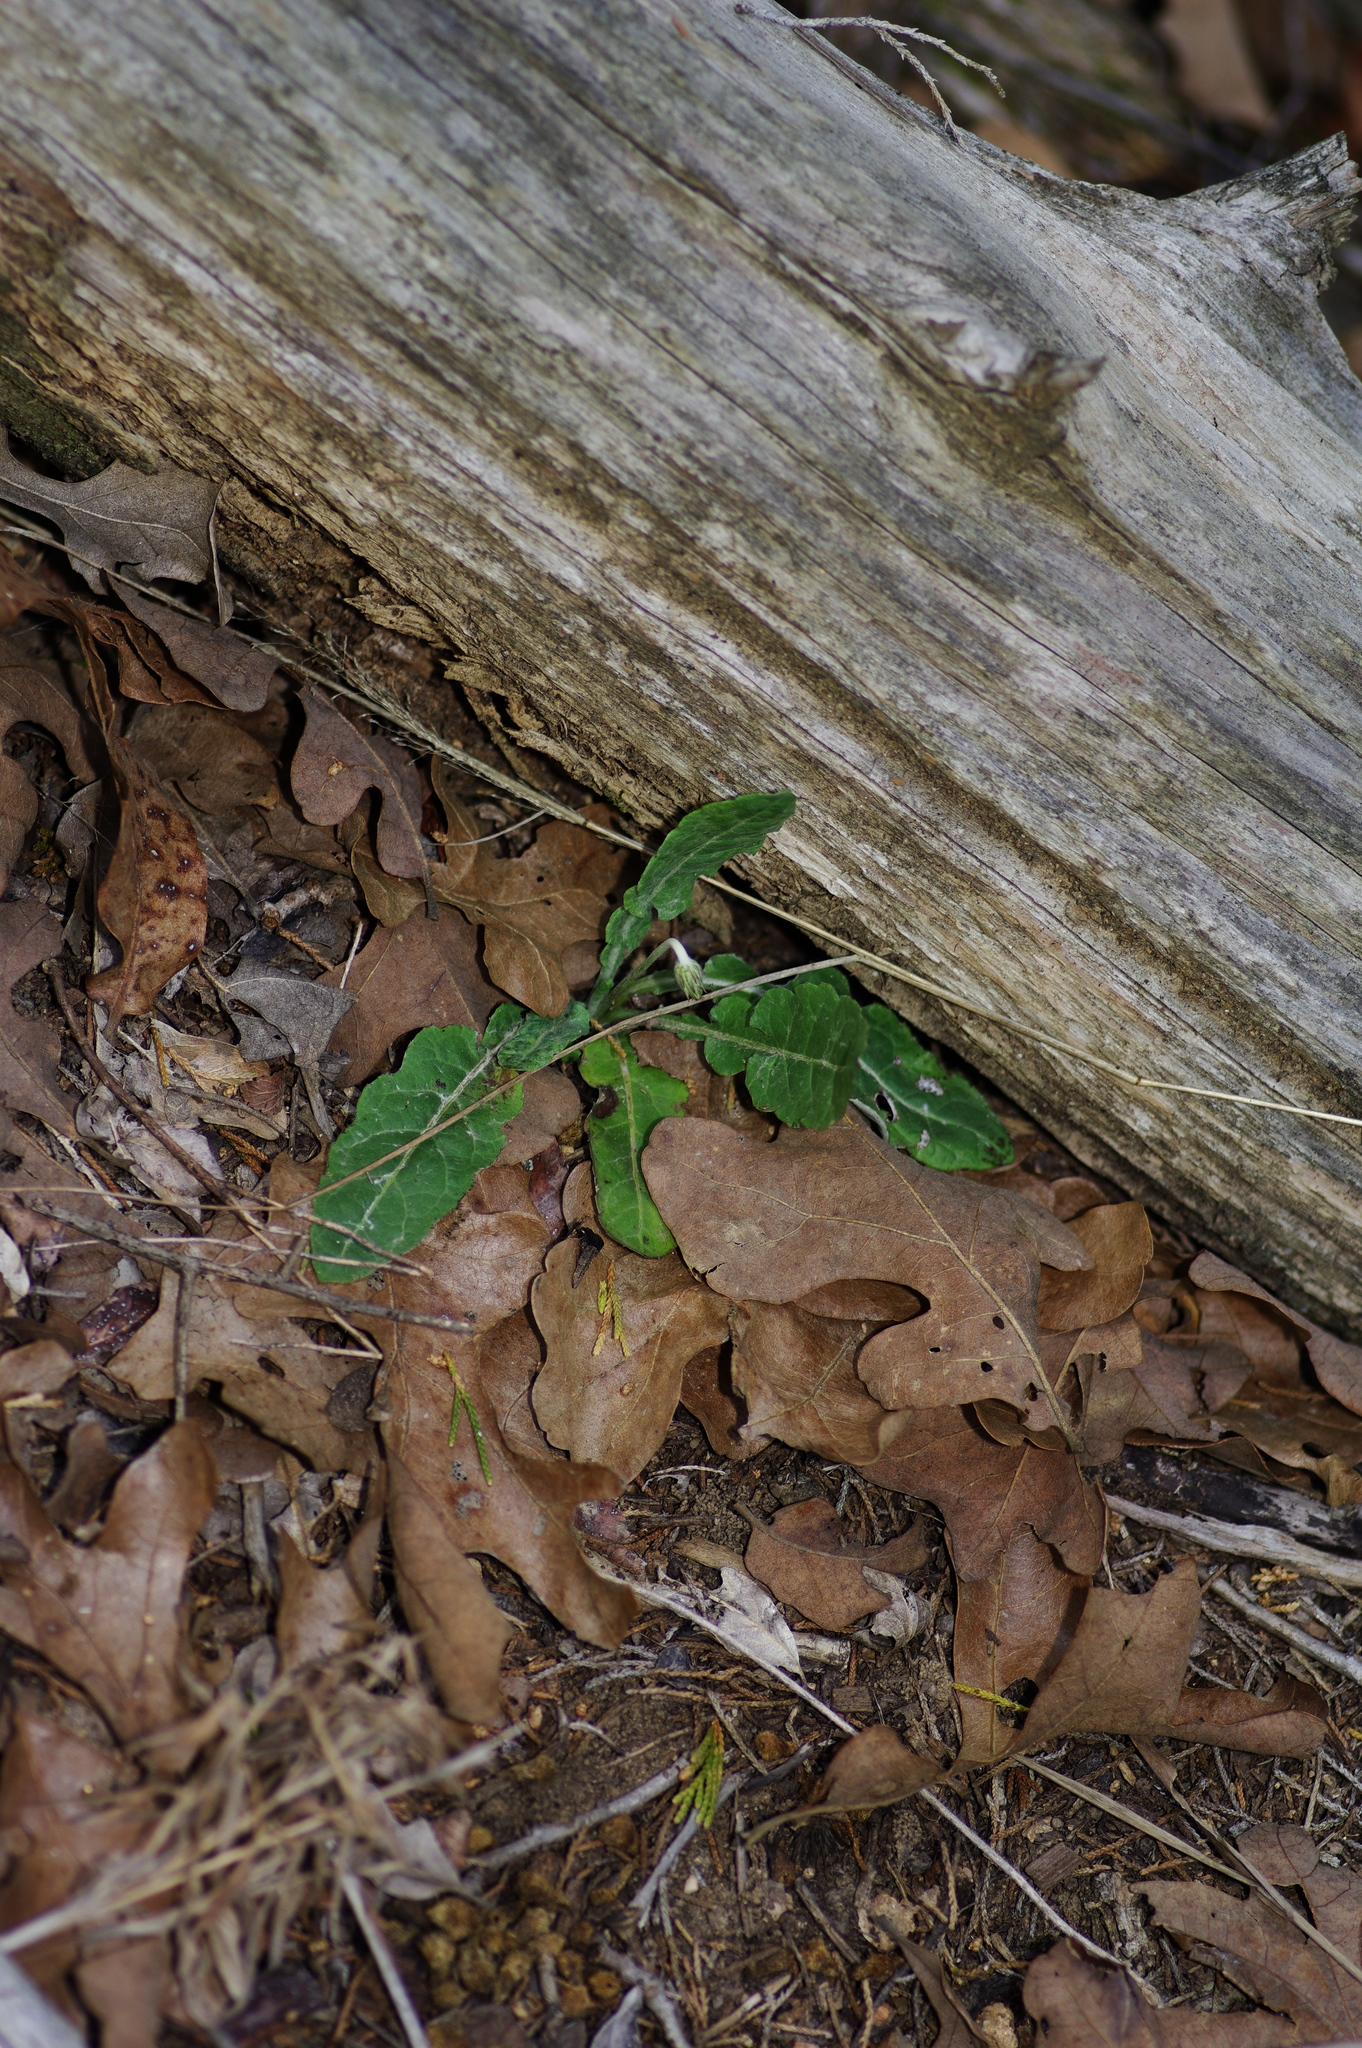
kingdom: Plantae
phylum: Tracheophyta
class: Magnoliopsida
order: Asterales
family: Asteraceae
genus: Chaptalia
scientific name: Chaptalia texana
